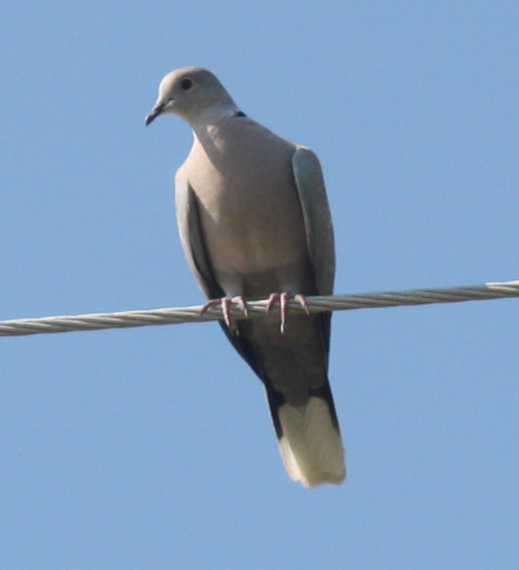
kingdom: Animalia
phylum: Chordata
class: Aves
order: Columbiformes
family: Columbidae
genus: Streptopelia
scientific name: Streptopelia decaocto
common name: Eurasian collared dove
